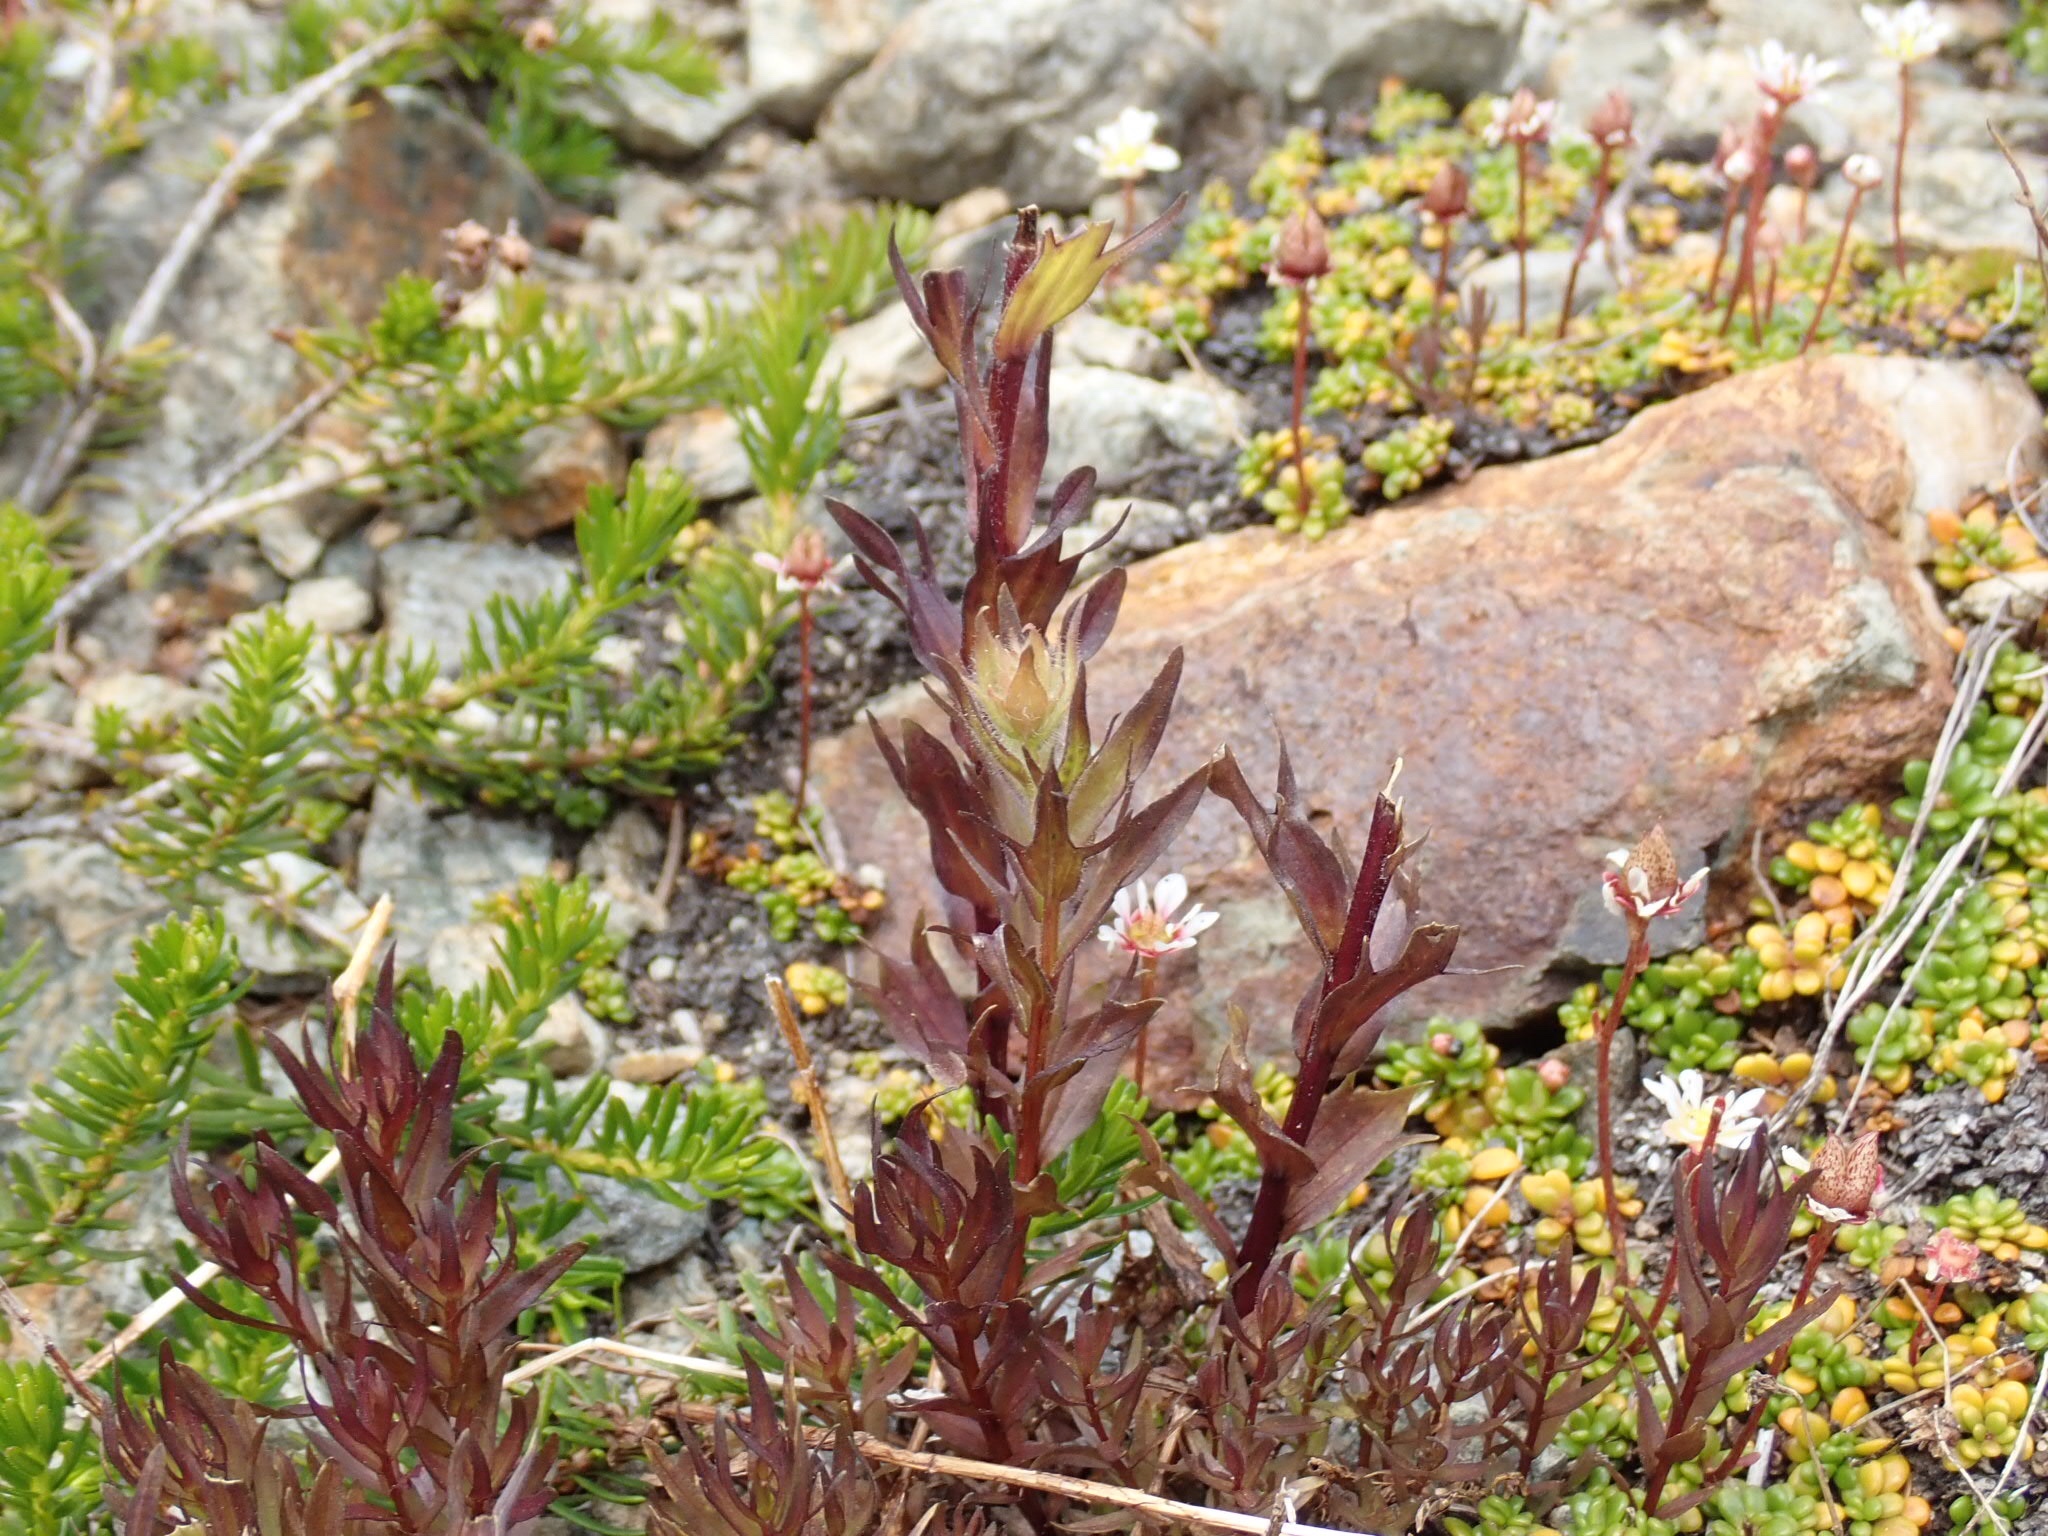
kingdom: Plantae
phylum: Tracheophyta
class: Magnoliopsida
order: Lamiales
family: Orobanchaceae
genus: Castilleja
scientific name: Castilleja parviflora
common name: Mountain paintbrush
